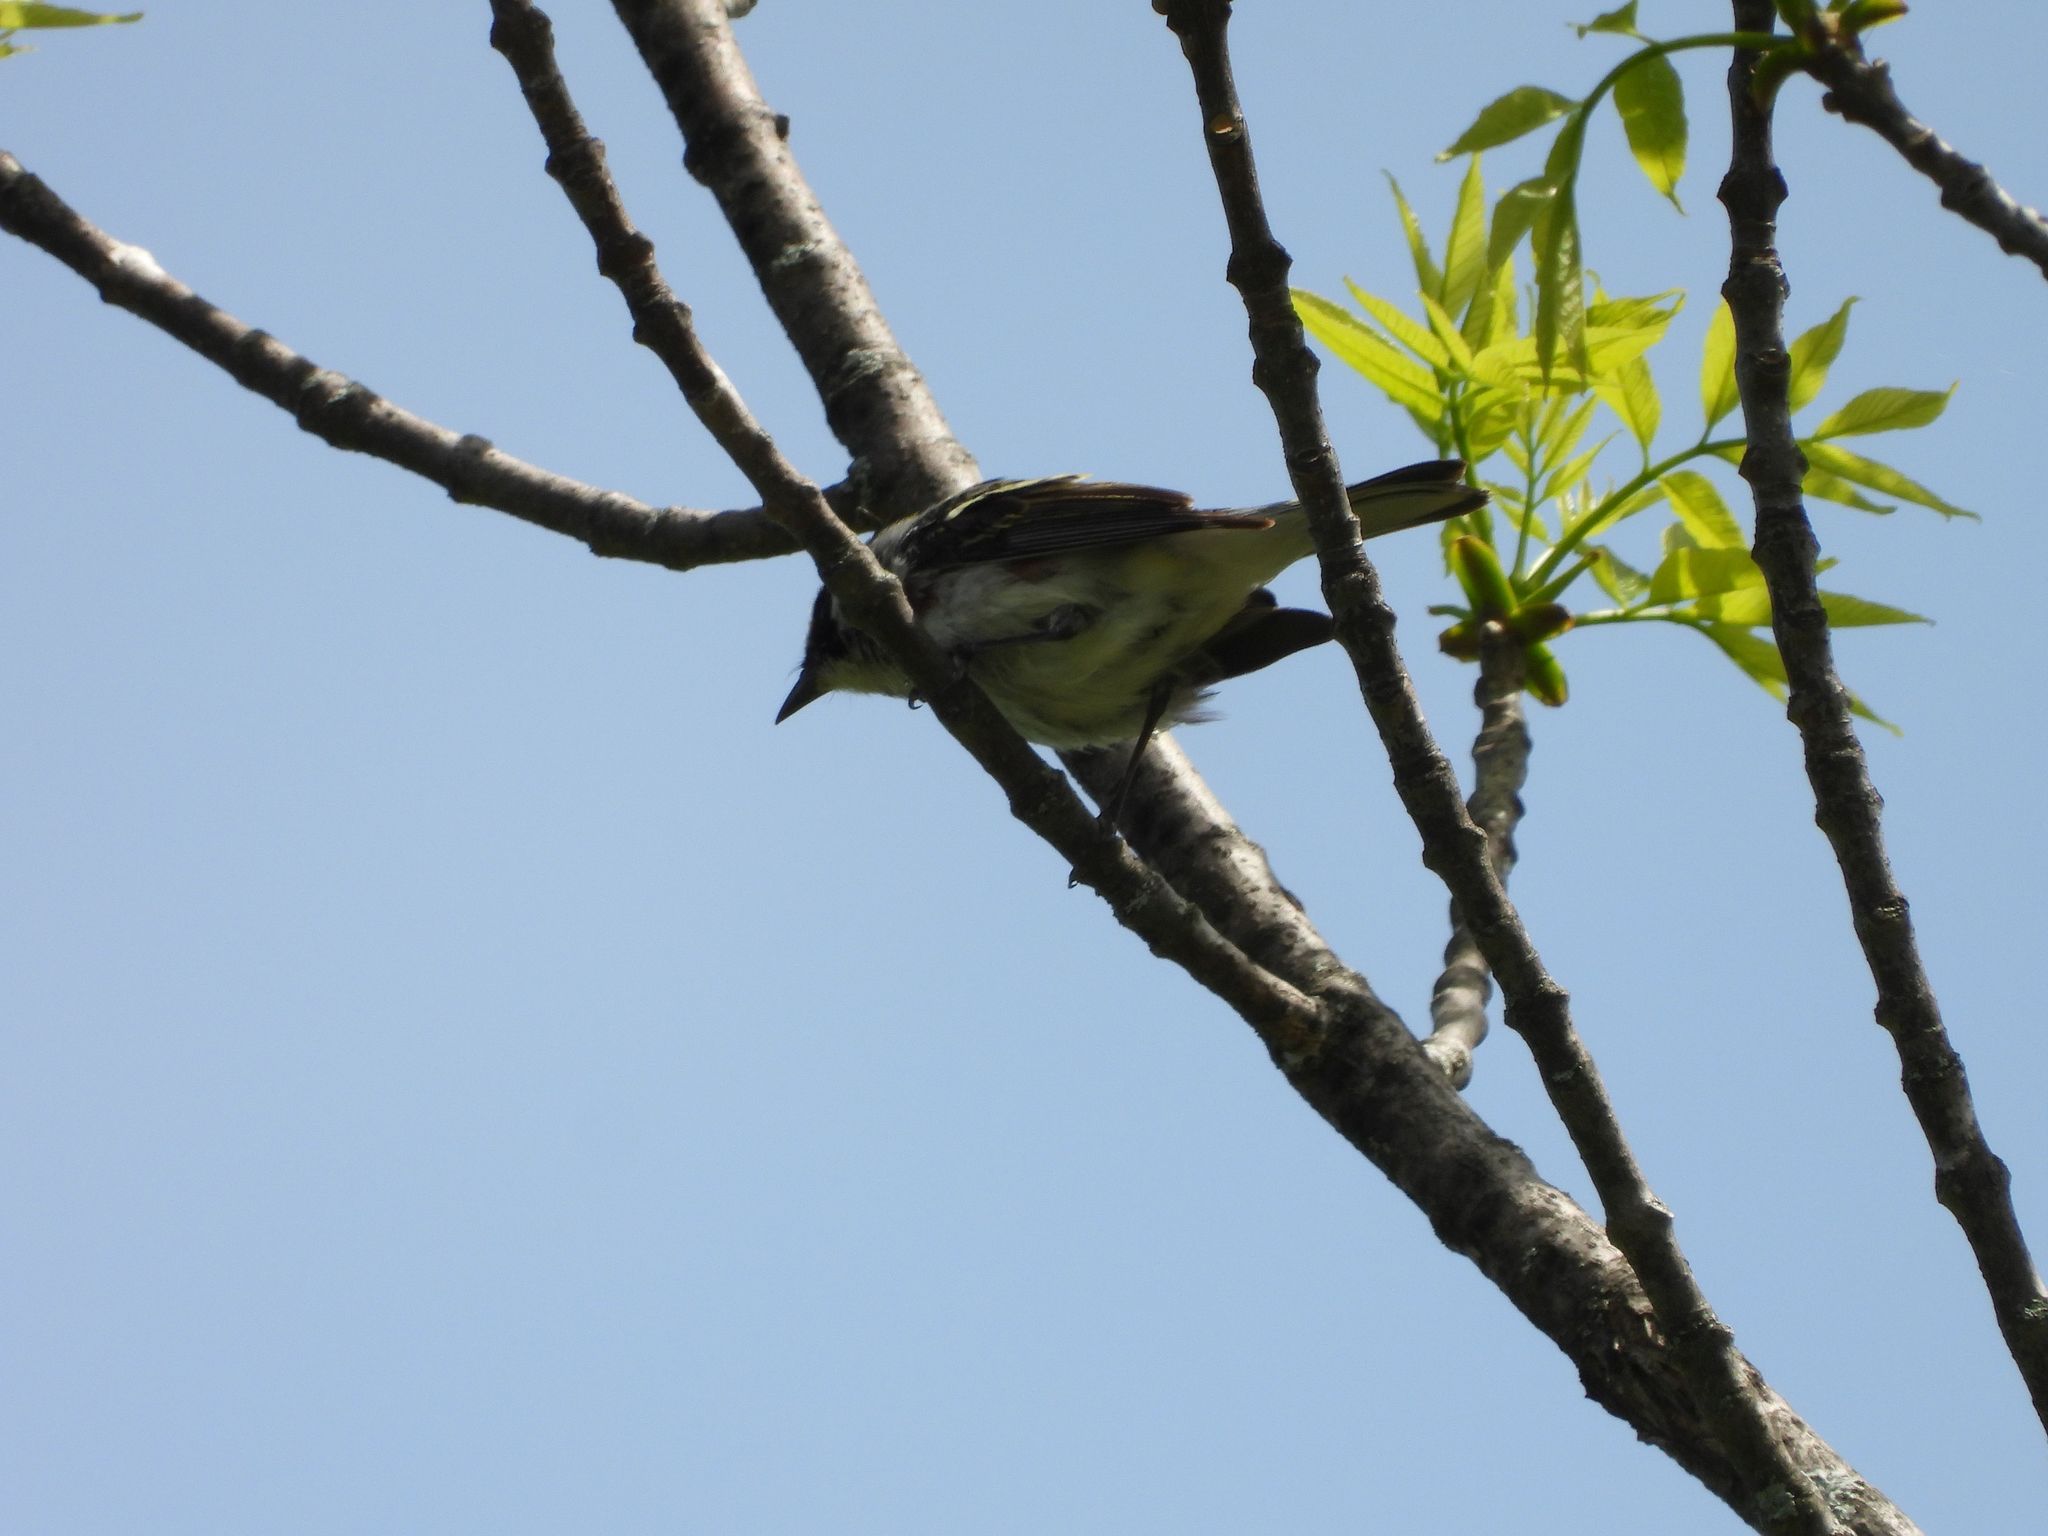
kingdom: Animalia
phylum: Chordata
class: Aves
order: Passeriformes
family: Parulidae
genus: Setophaga
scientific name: Setophaga pensylvanica
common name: Chestnut-sided warbler
